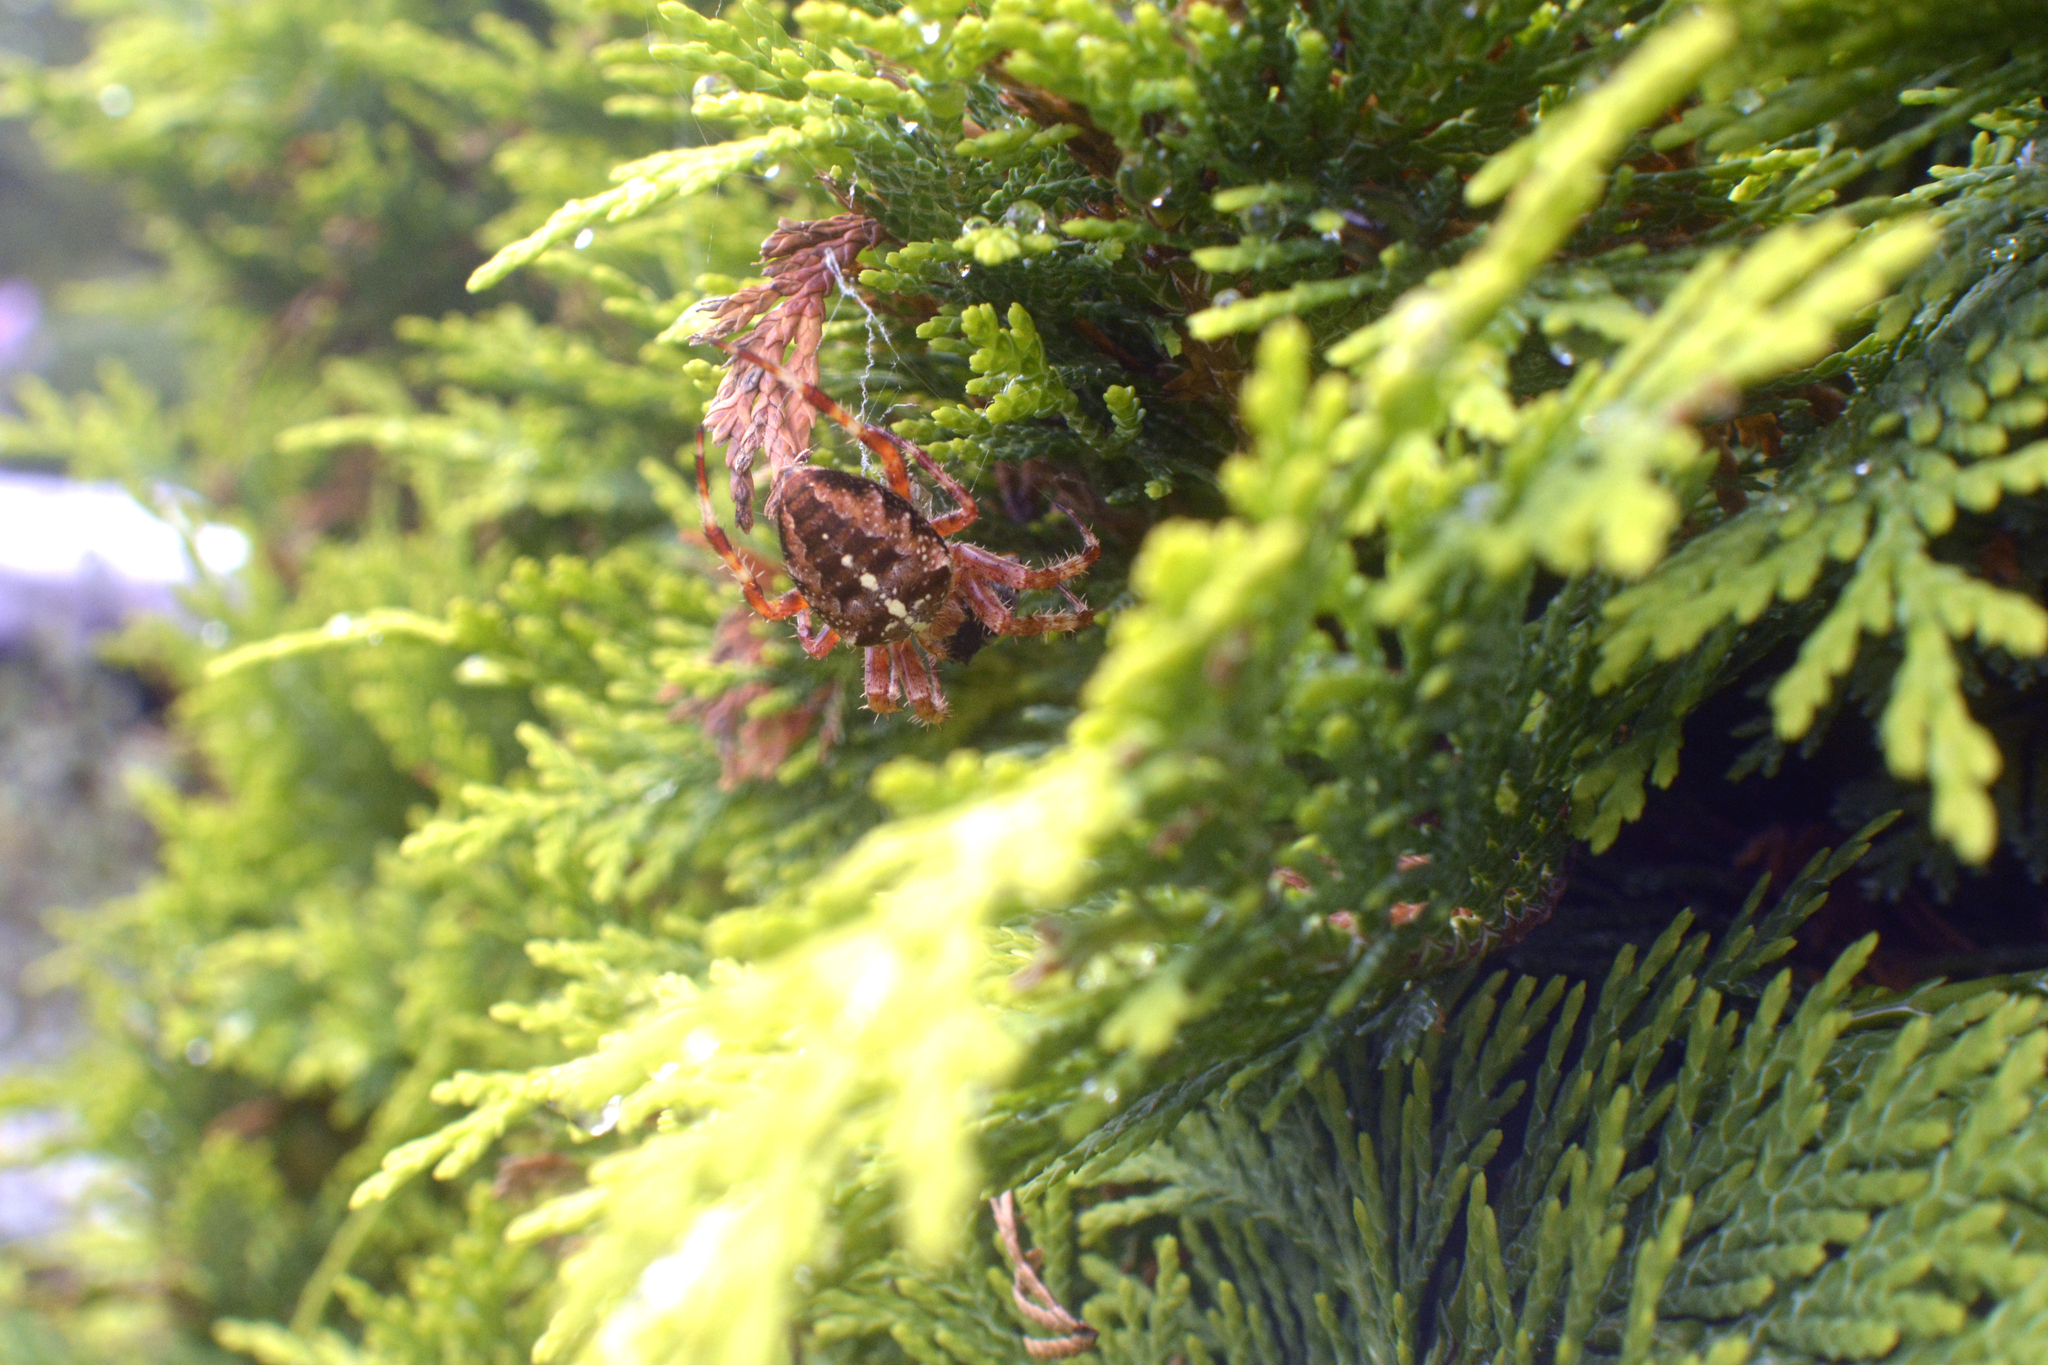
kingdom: Animalia
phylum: Arthropoda
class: Arachnida
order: Araneae
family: Araneidae
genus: Araneus
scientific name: Araneus diadematus
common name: Cross orbweaver
